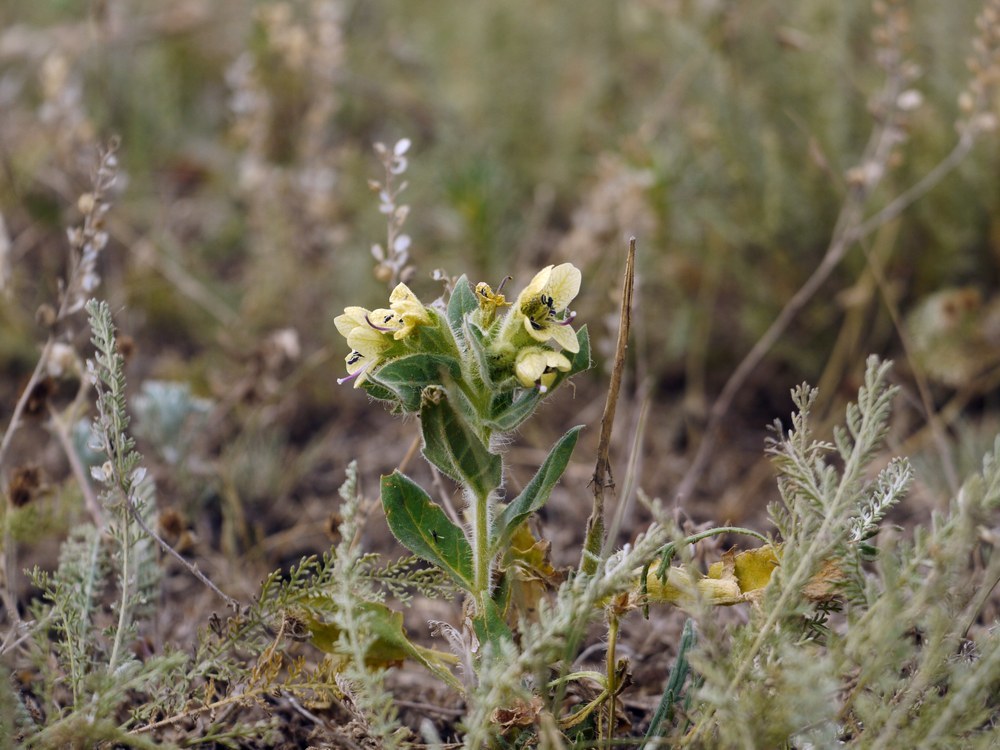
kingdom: Plantae
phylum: Tracheophyta
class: Magnoliopsida
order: Solanales
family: Solanaceae
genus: Hyoscyamus
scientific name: Hyoscyamus niger
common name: Henbane
